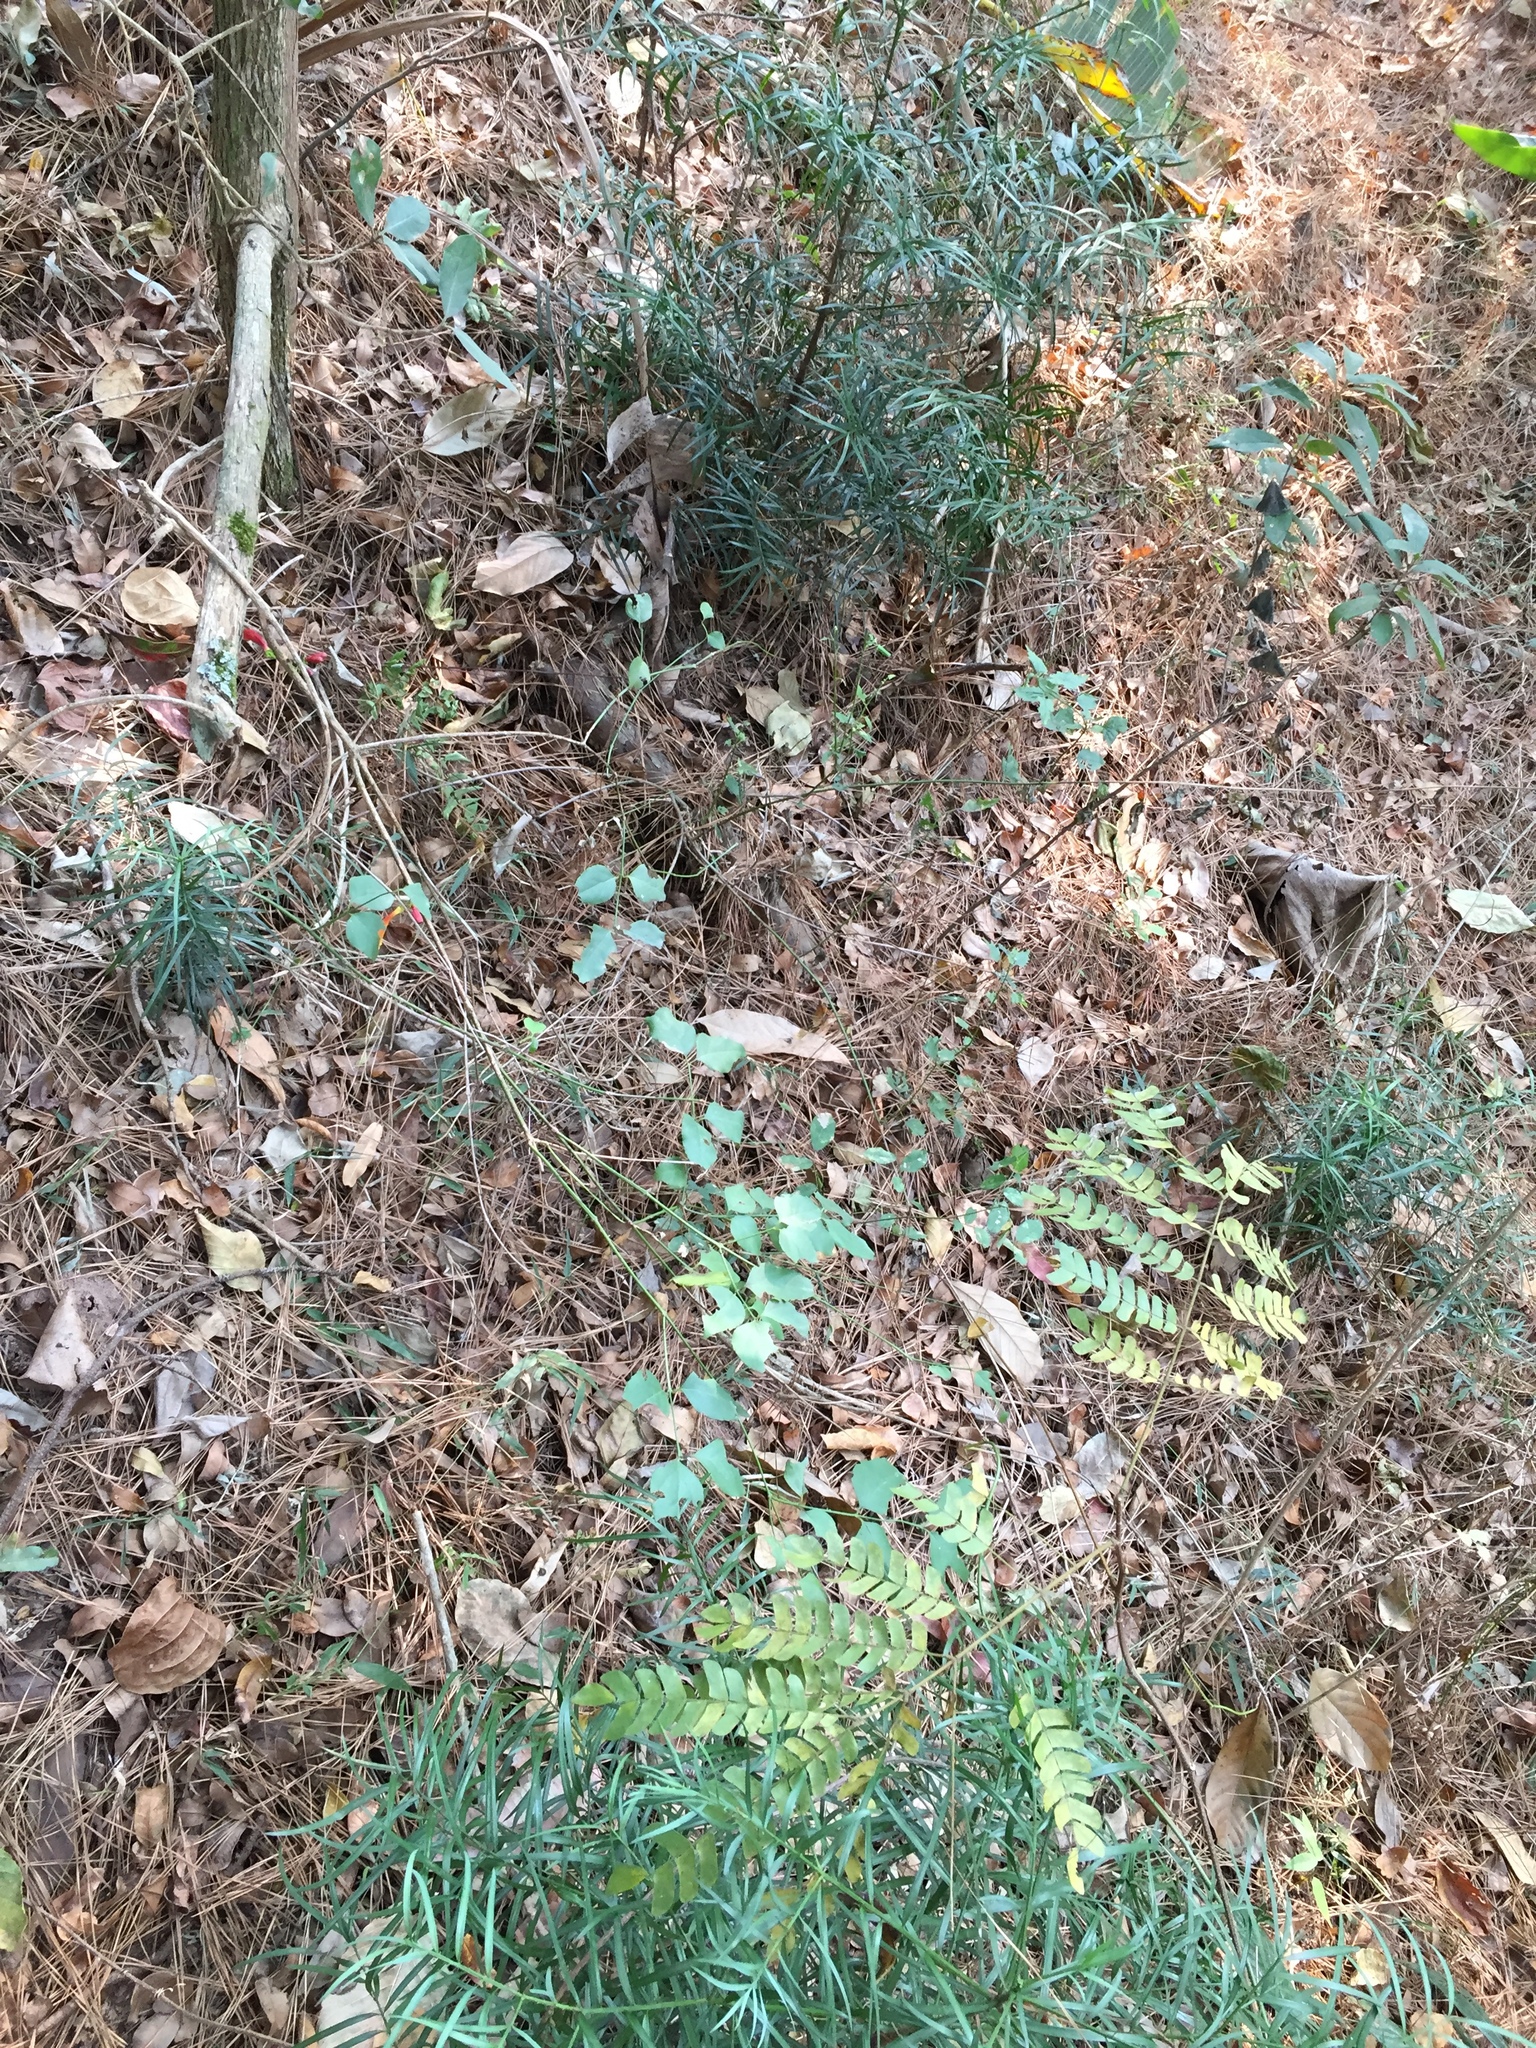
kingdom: Plantae
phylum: Tracheophyta
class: Magnoliopsida
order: Lamiales
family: Stilbaceae
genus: Halleria
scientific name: Halleria lucida
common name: Tree fuschia
